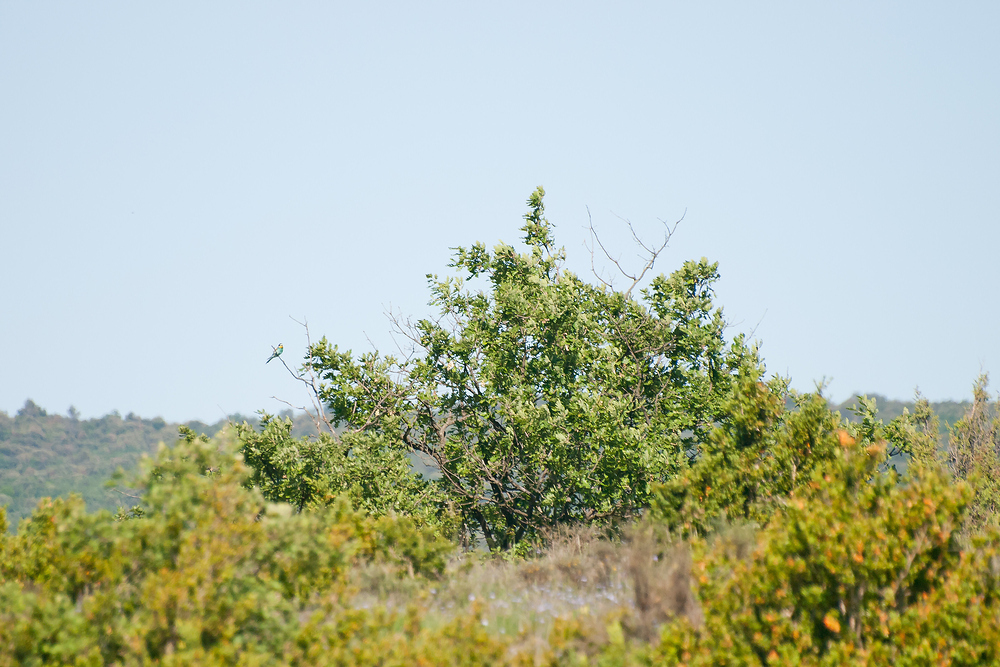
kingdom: Animalia
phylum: Chordata
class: Aves
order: Coraciiformes
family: Meropidae
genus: Merops
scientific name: Merops apiaster
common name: European bee-eater
